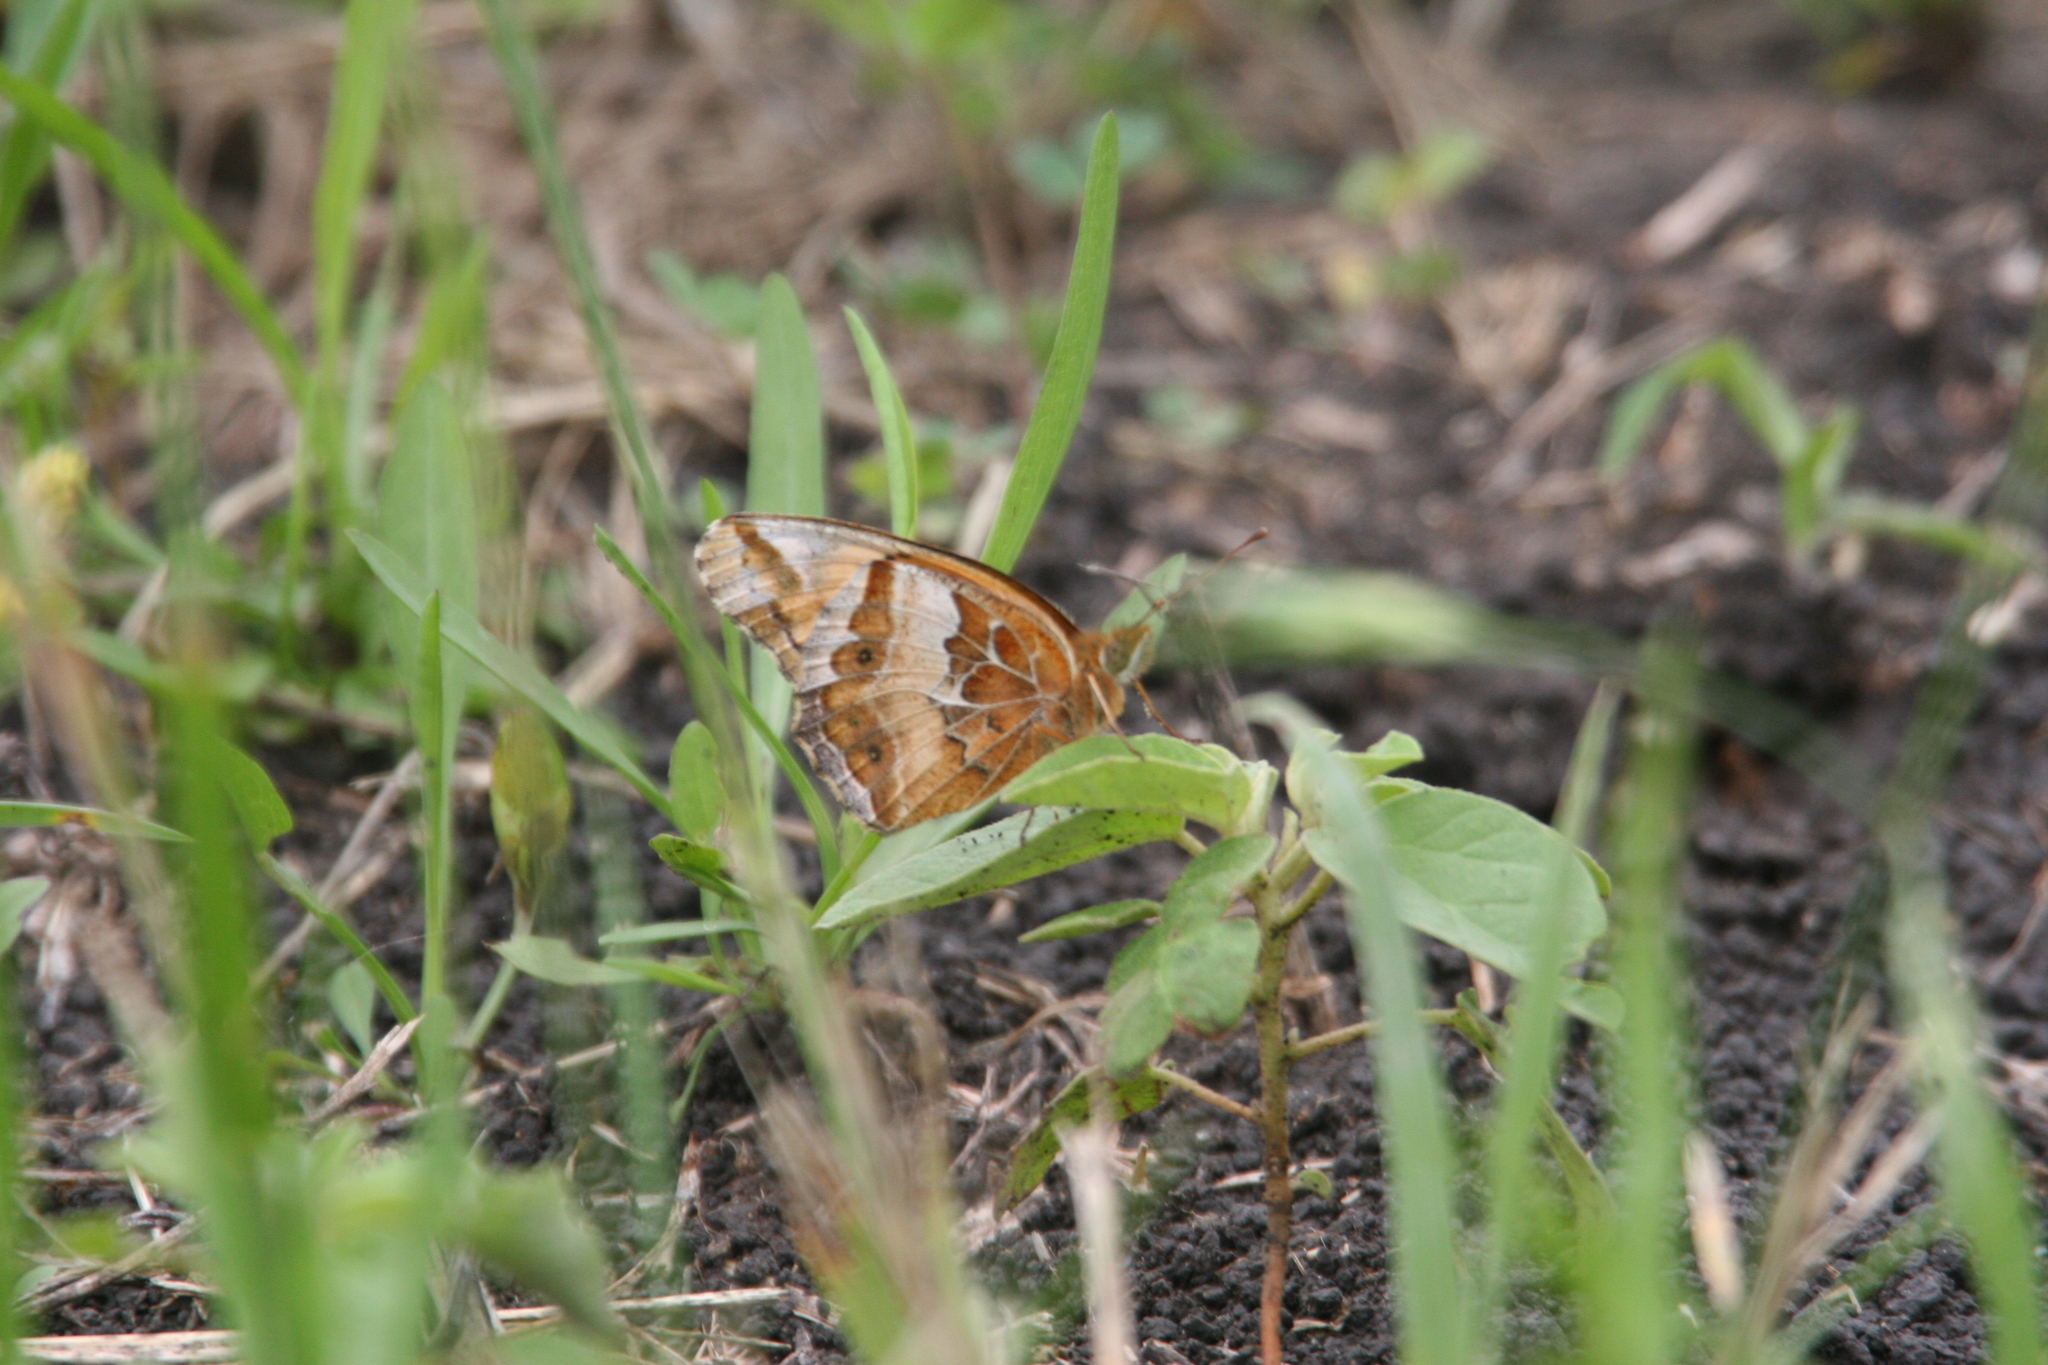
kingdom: Animalia
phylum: Arthropoda
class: Insecta
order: Lepidoptera
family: Nymphalidae
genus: Euptoieta
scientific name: Euptoieta claudia
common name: Variegated fritillary
